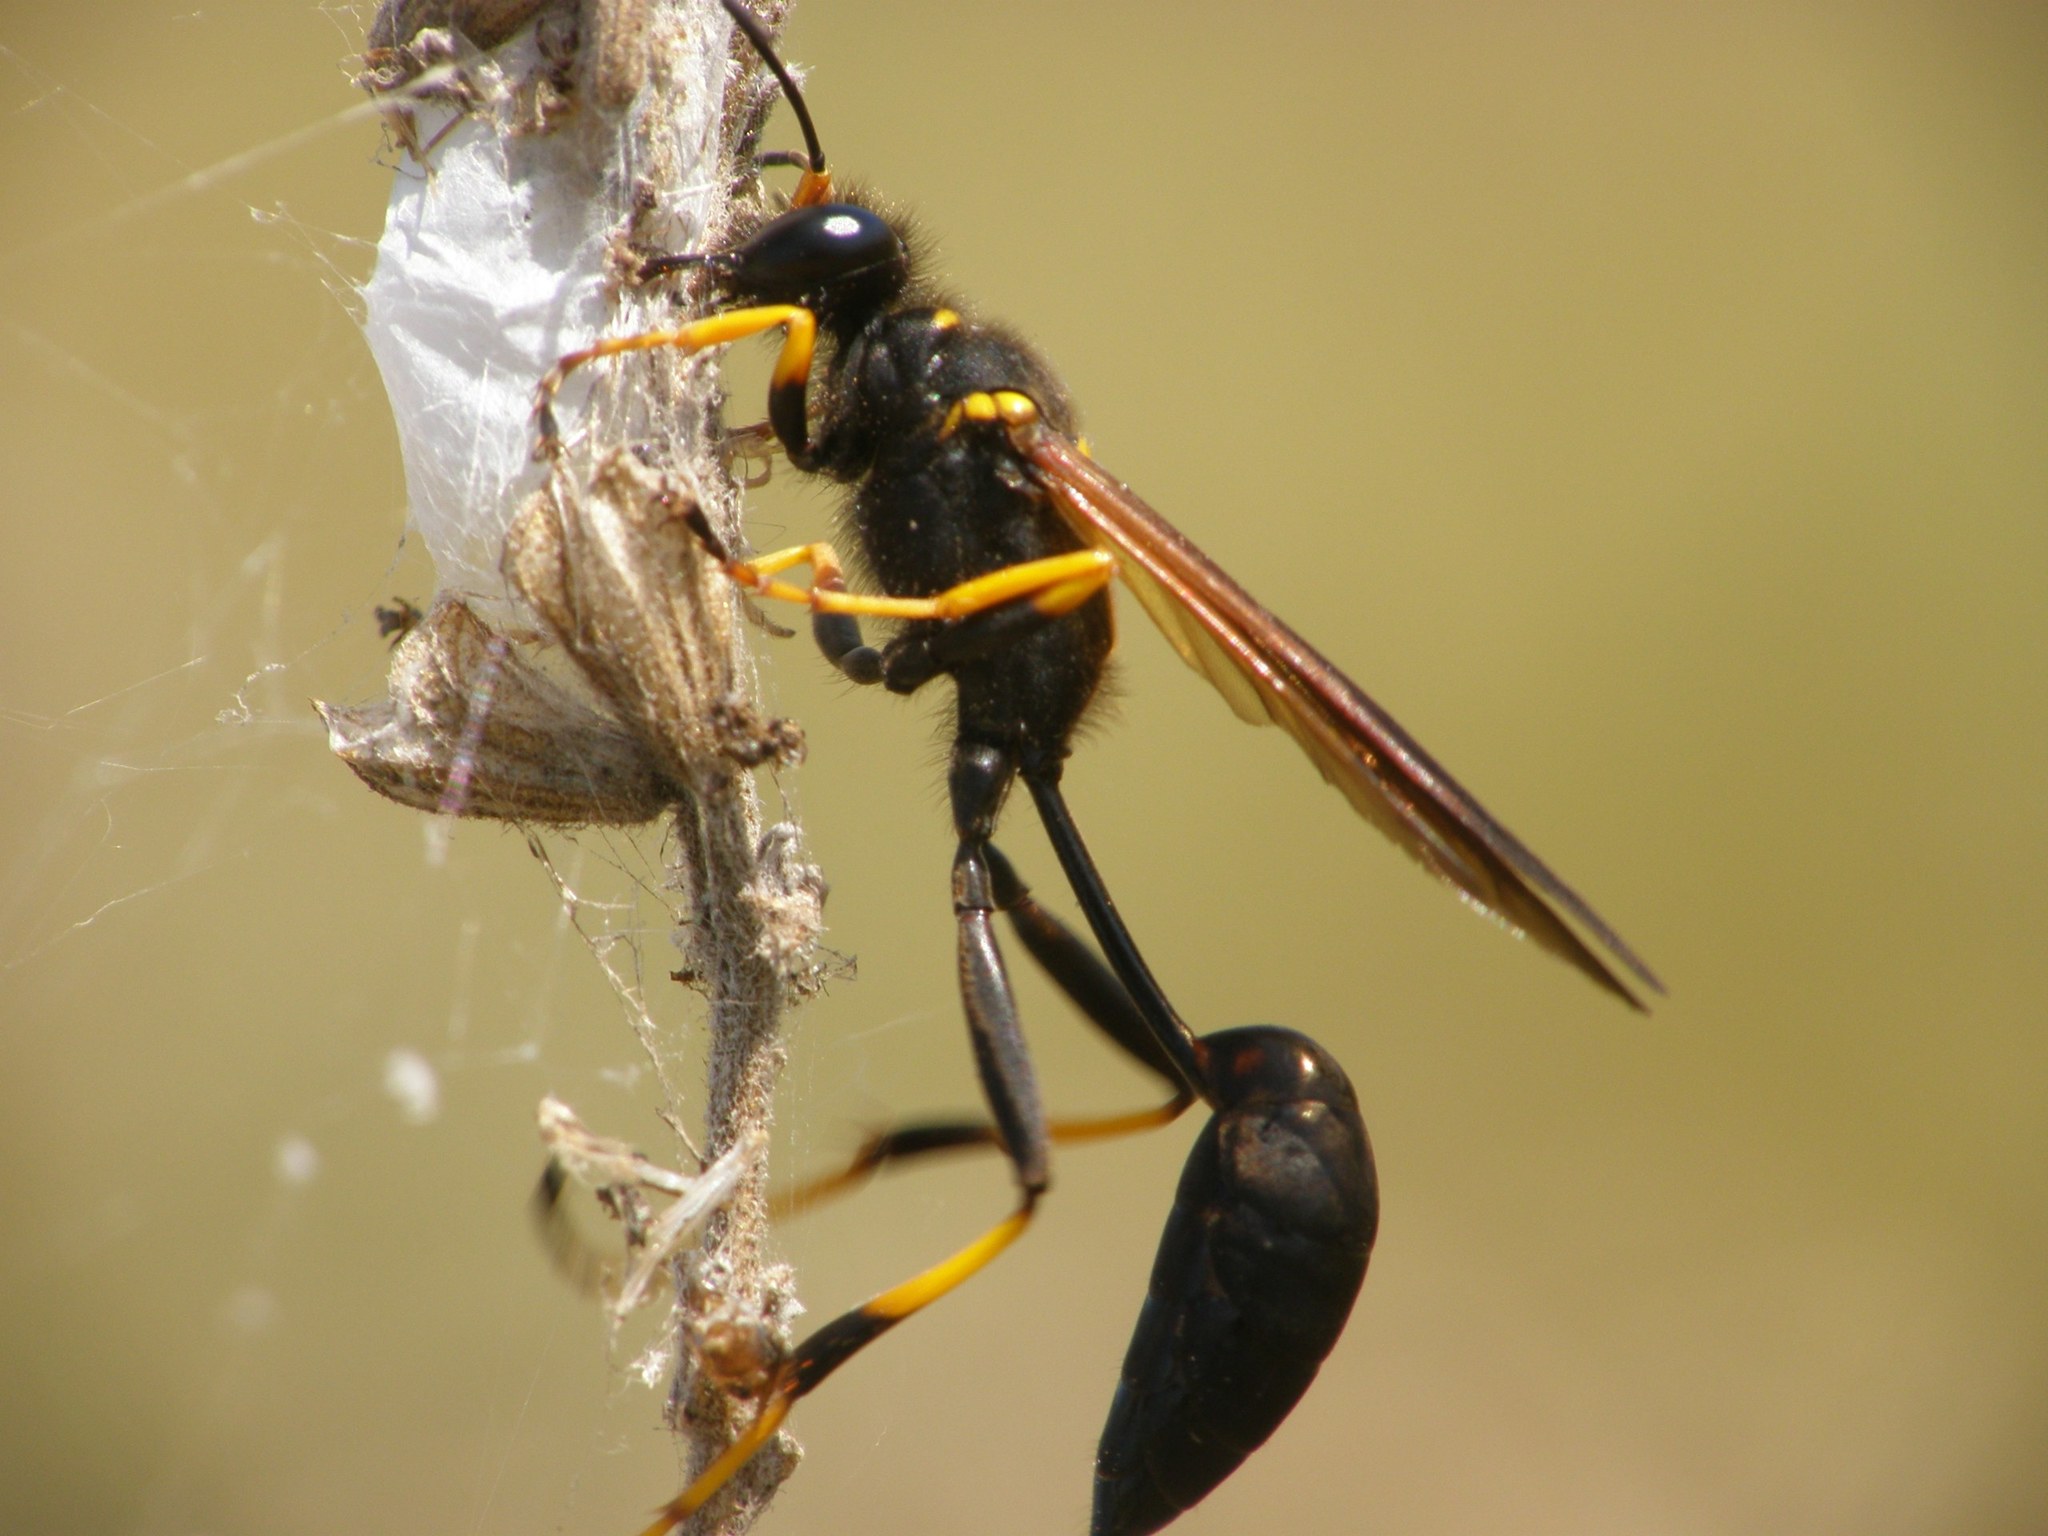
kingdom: Animalia
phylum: Arthropoda
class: Insecta
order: Hymenoptera
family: Sphecidae
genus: Sceliphron
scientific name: Sceliphron caementarium
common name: Mud dauber
